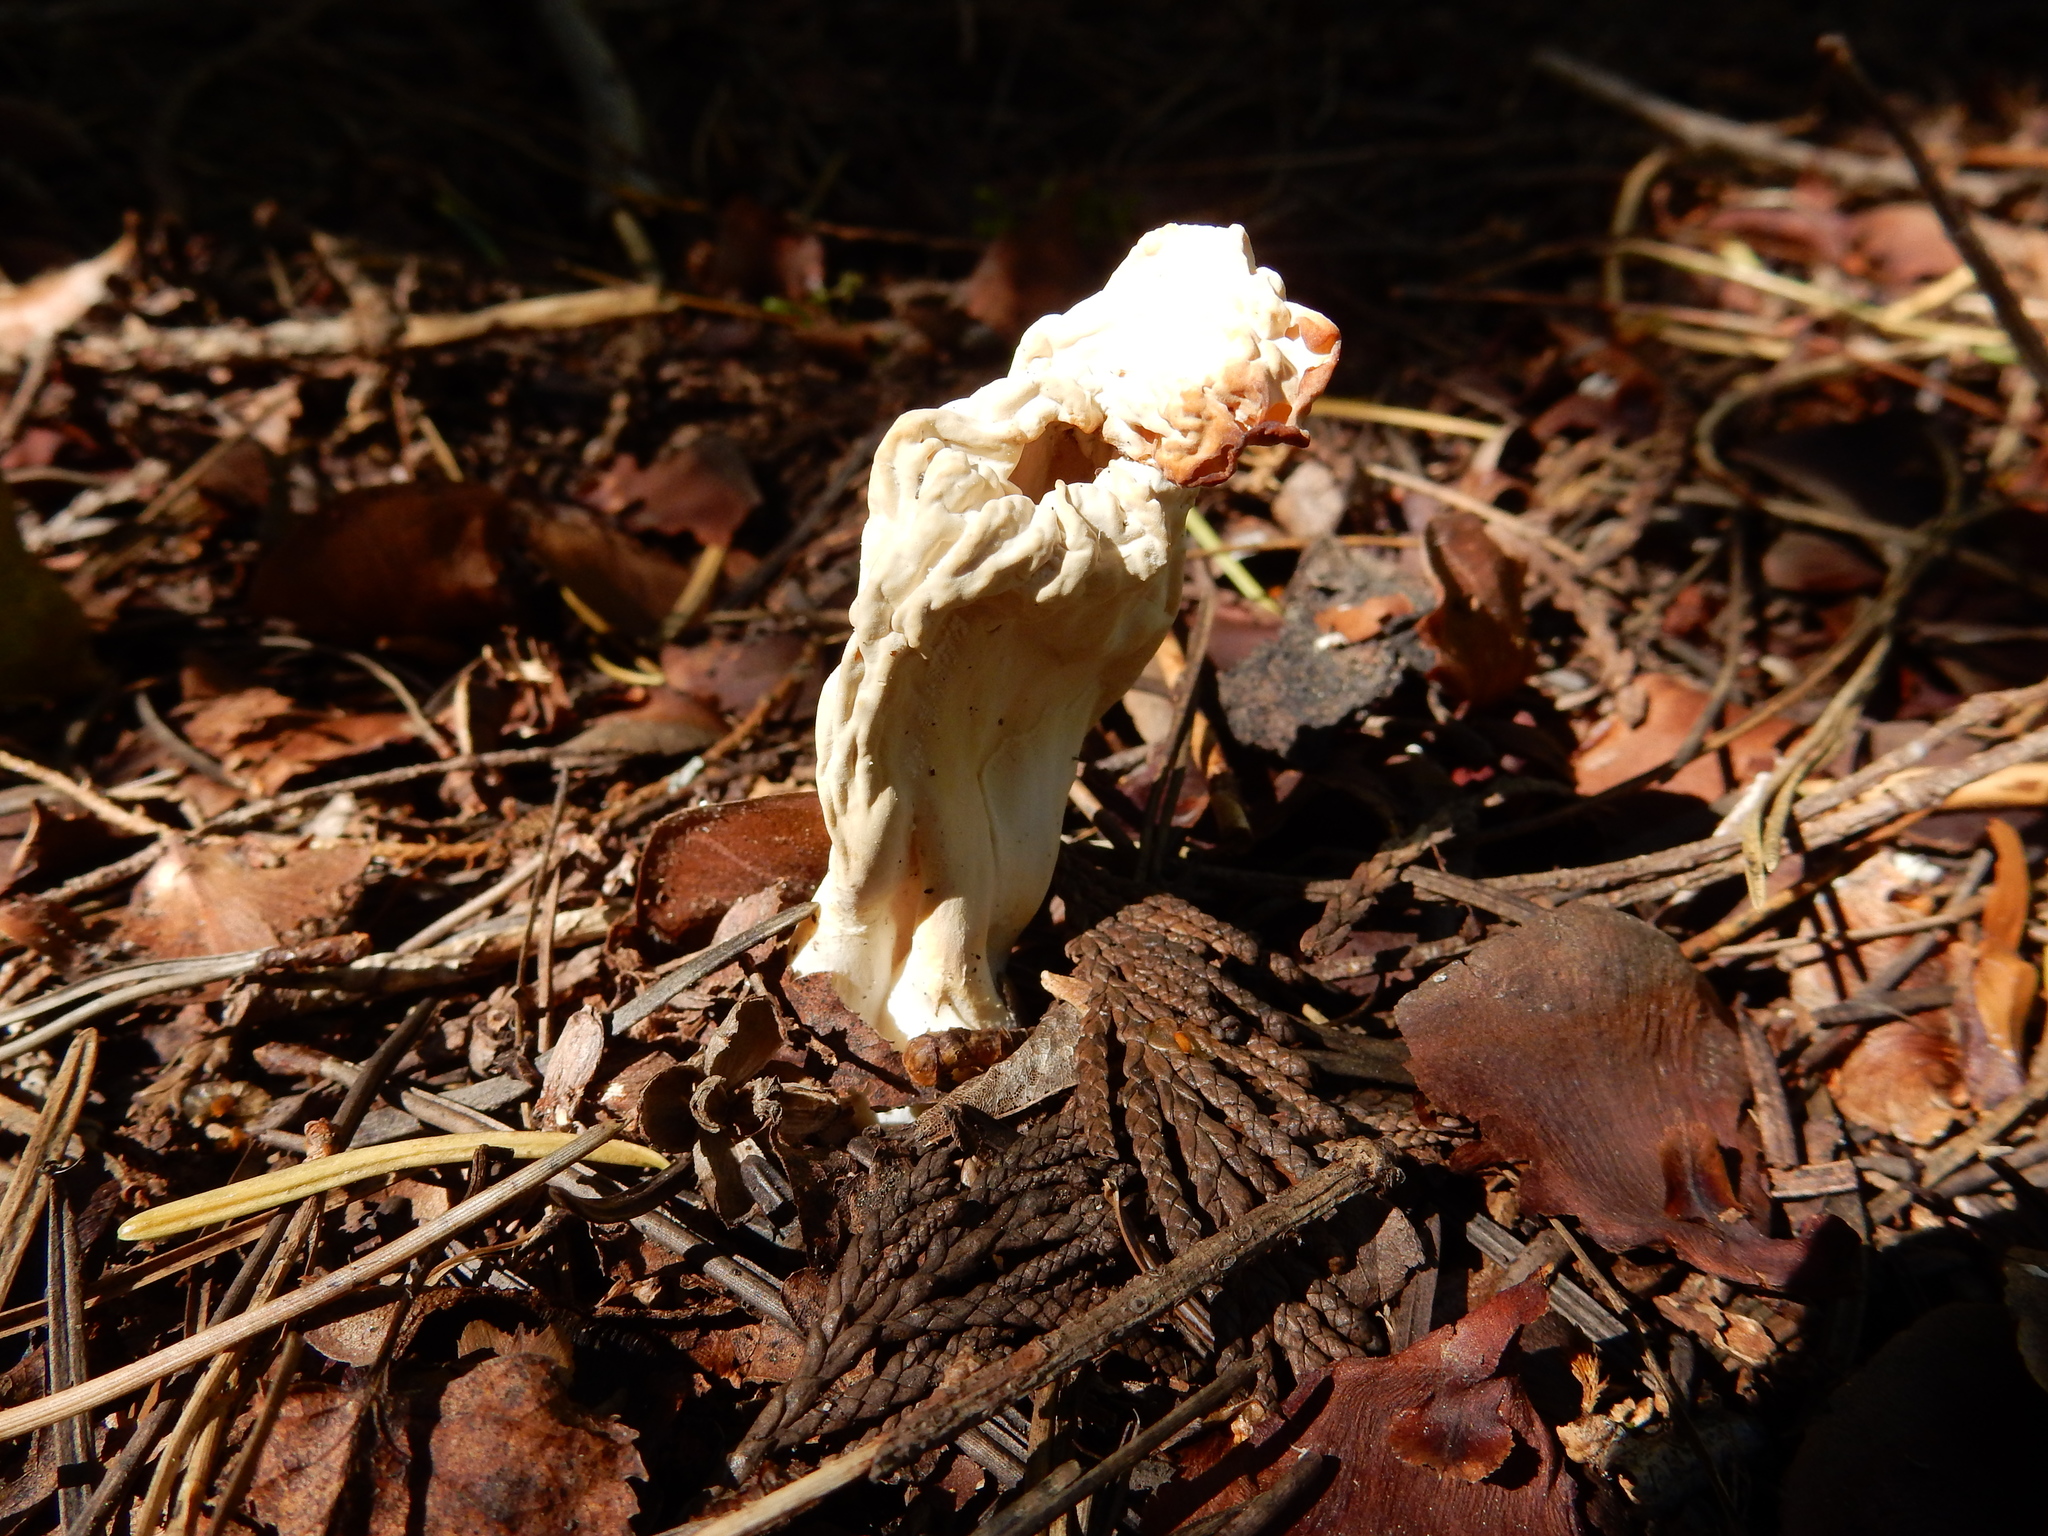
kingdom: Fungi
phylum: Basidiomycota
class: Agaricomycetes
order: Cantharellales
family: Hydnaceae
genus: Clavulina
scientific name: Clavulina rugosa
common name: Wrinkled club
